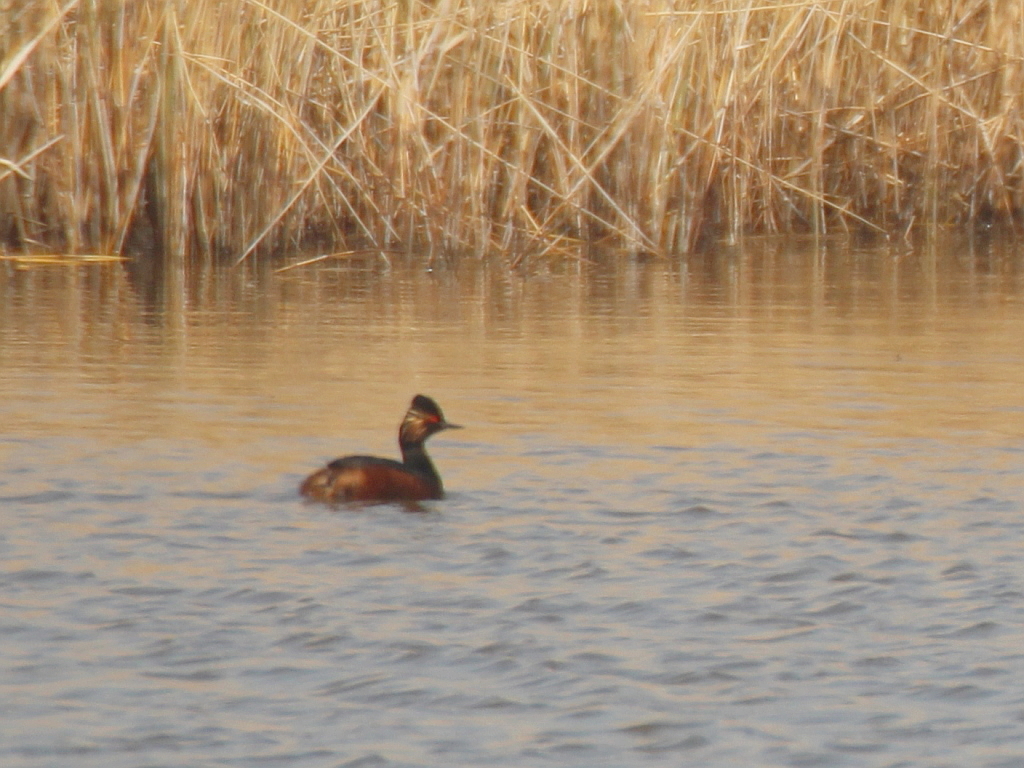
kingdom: Animalia
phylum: Chordata
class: Aves
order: Podicipediformes
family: Podicipedidae
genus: Podiceps
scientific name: Podiceps nigricollis
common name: Black-necked grebe
